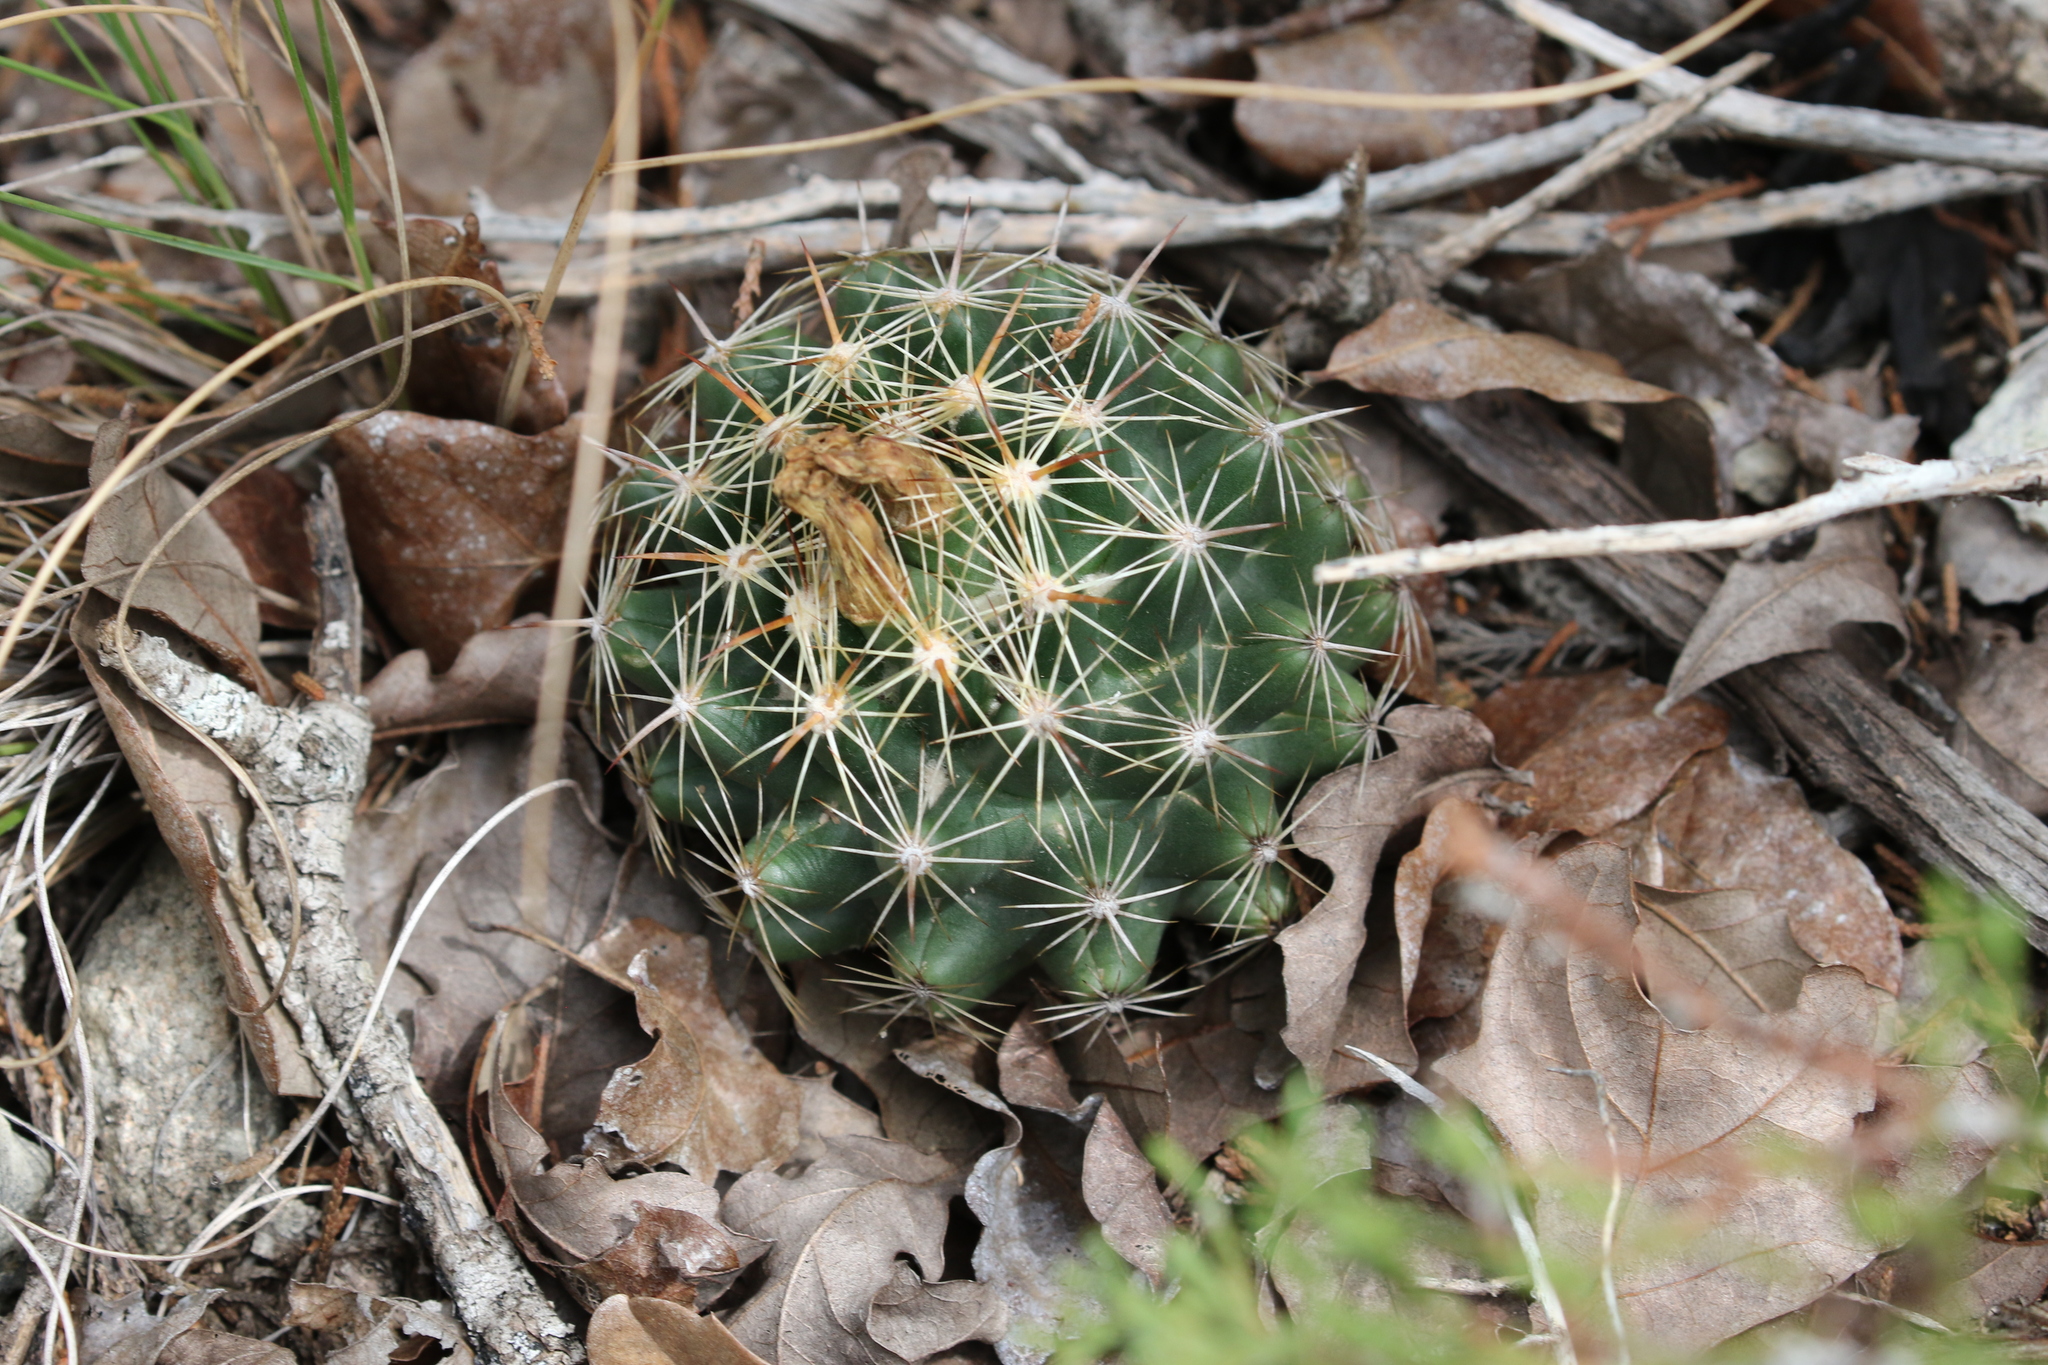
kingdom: Plantae
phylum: Tracheophyta
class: Magnoliopsida
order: Caryophyllales
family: Cactaceae
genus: Coryphantha
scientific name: Coryphantha sulcata
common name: Finger cactus
